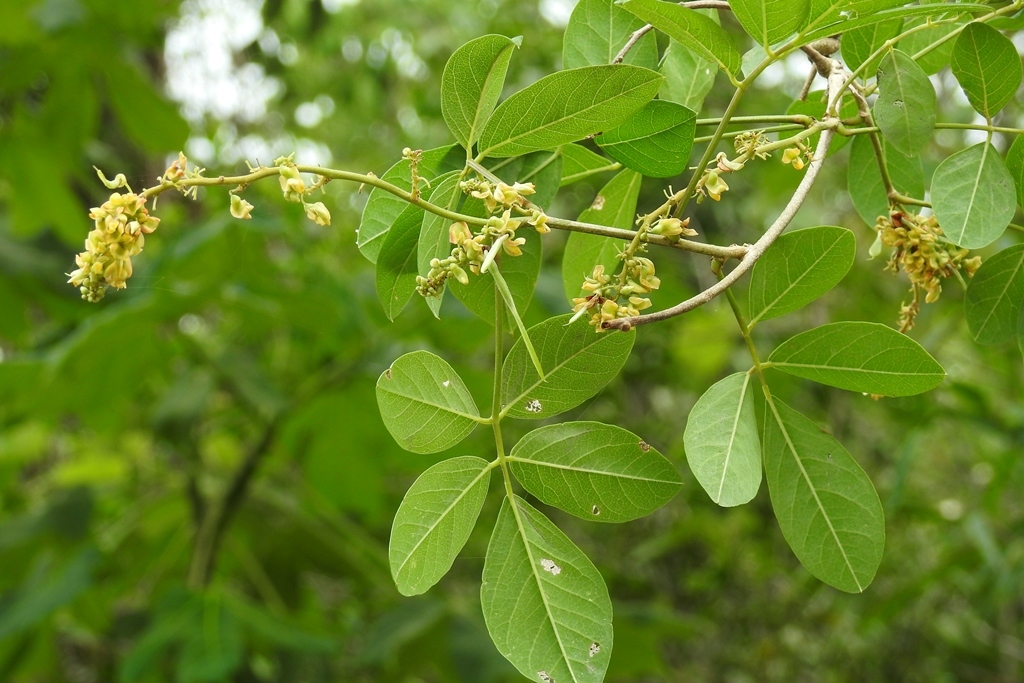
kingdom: Plantae
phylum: Tracheophyta
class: Magnoliopsida
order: Fabales
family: Fabaceae
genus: Nissolia
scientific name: Nissolia fruticosa
